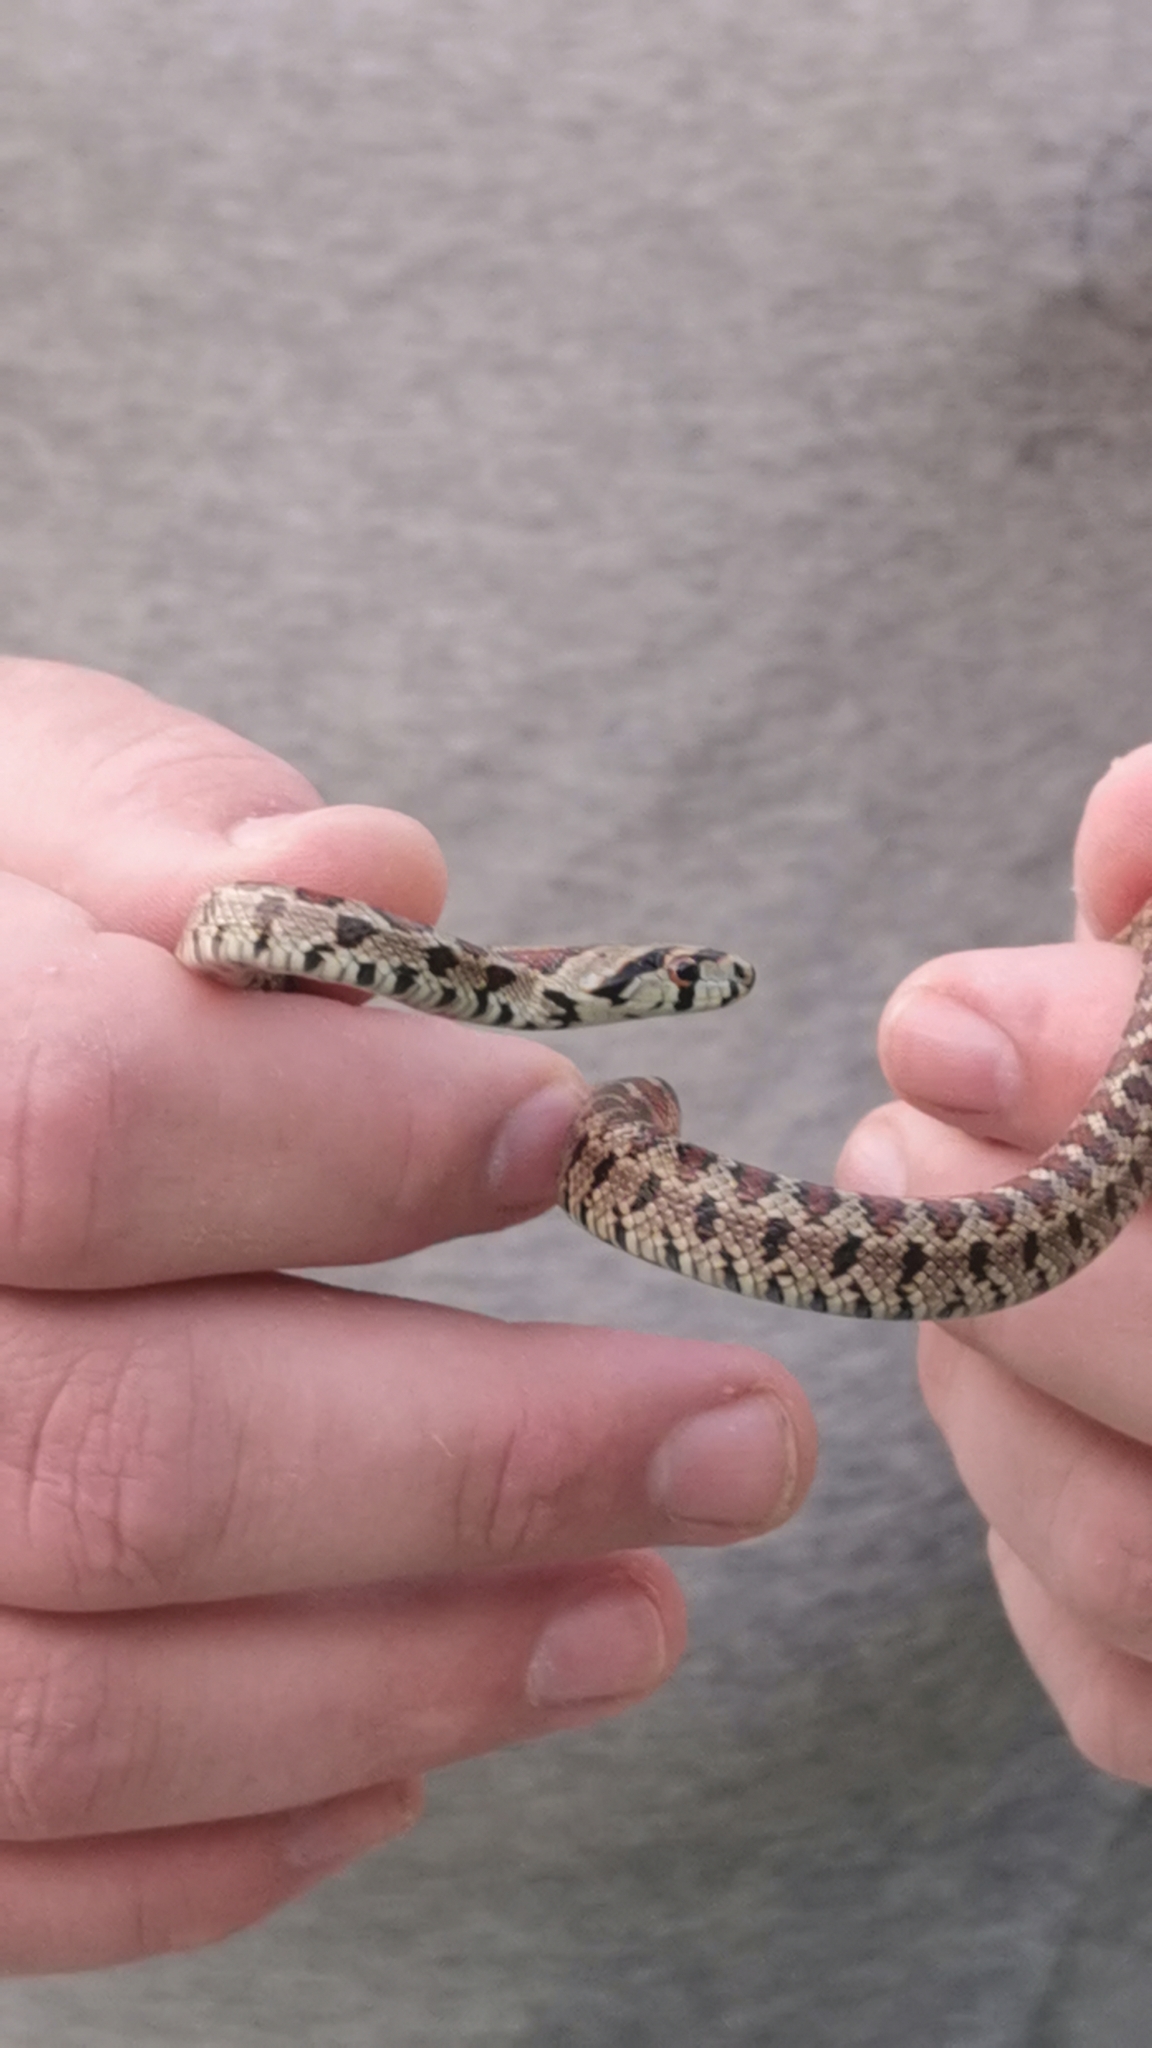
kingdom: Animalia
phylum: Chordata
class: Squamata
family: Colubridae
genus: Zamenis
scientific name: Zamenis situla
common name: European ratsnake
